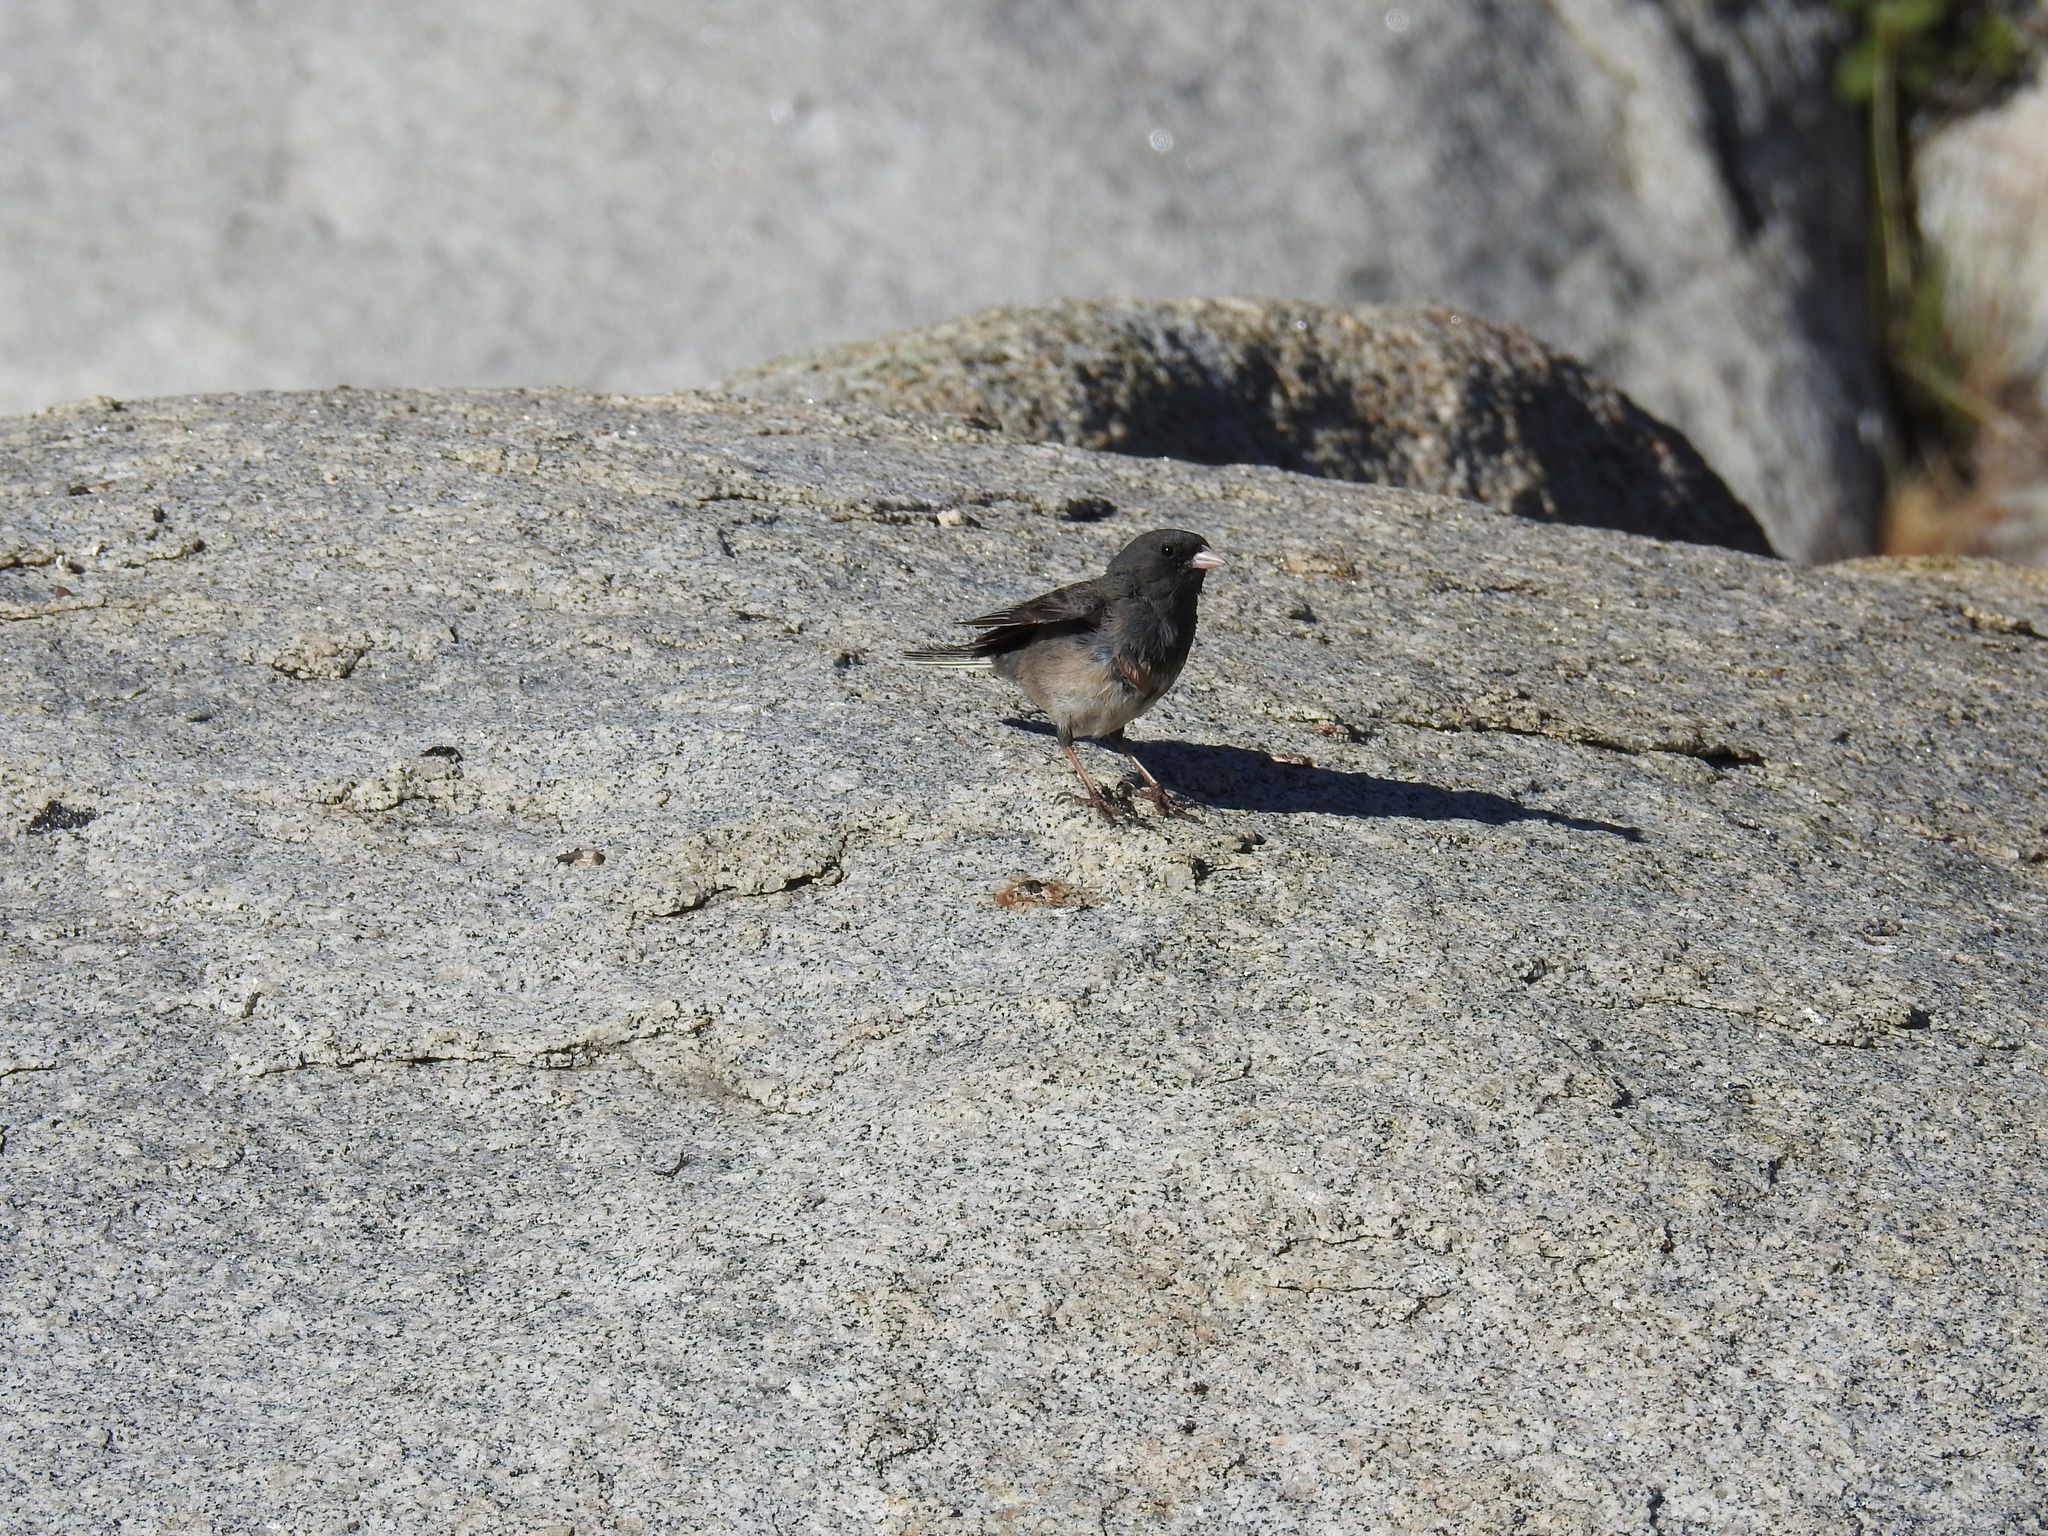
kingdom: Animalia
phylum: Chordata
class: Aves
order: Passeriformes
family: Passerellidae
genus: Junco
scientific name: Junco hyemalis
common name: Dark-eyed junco
